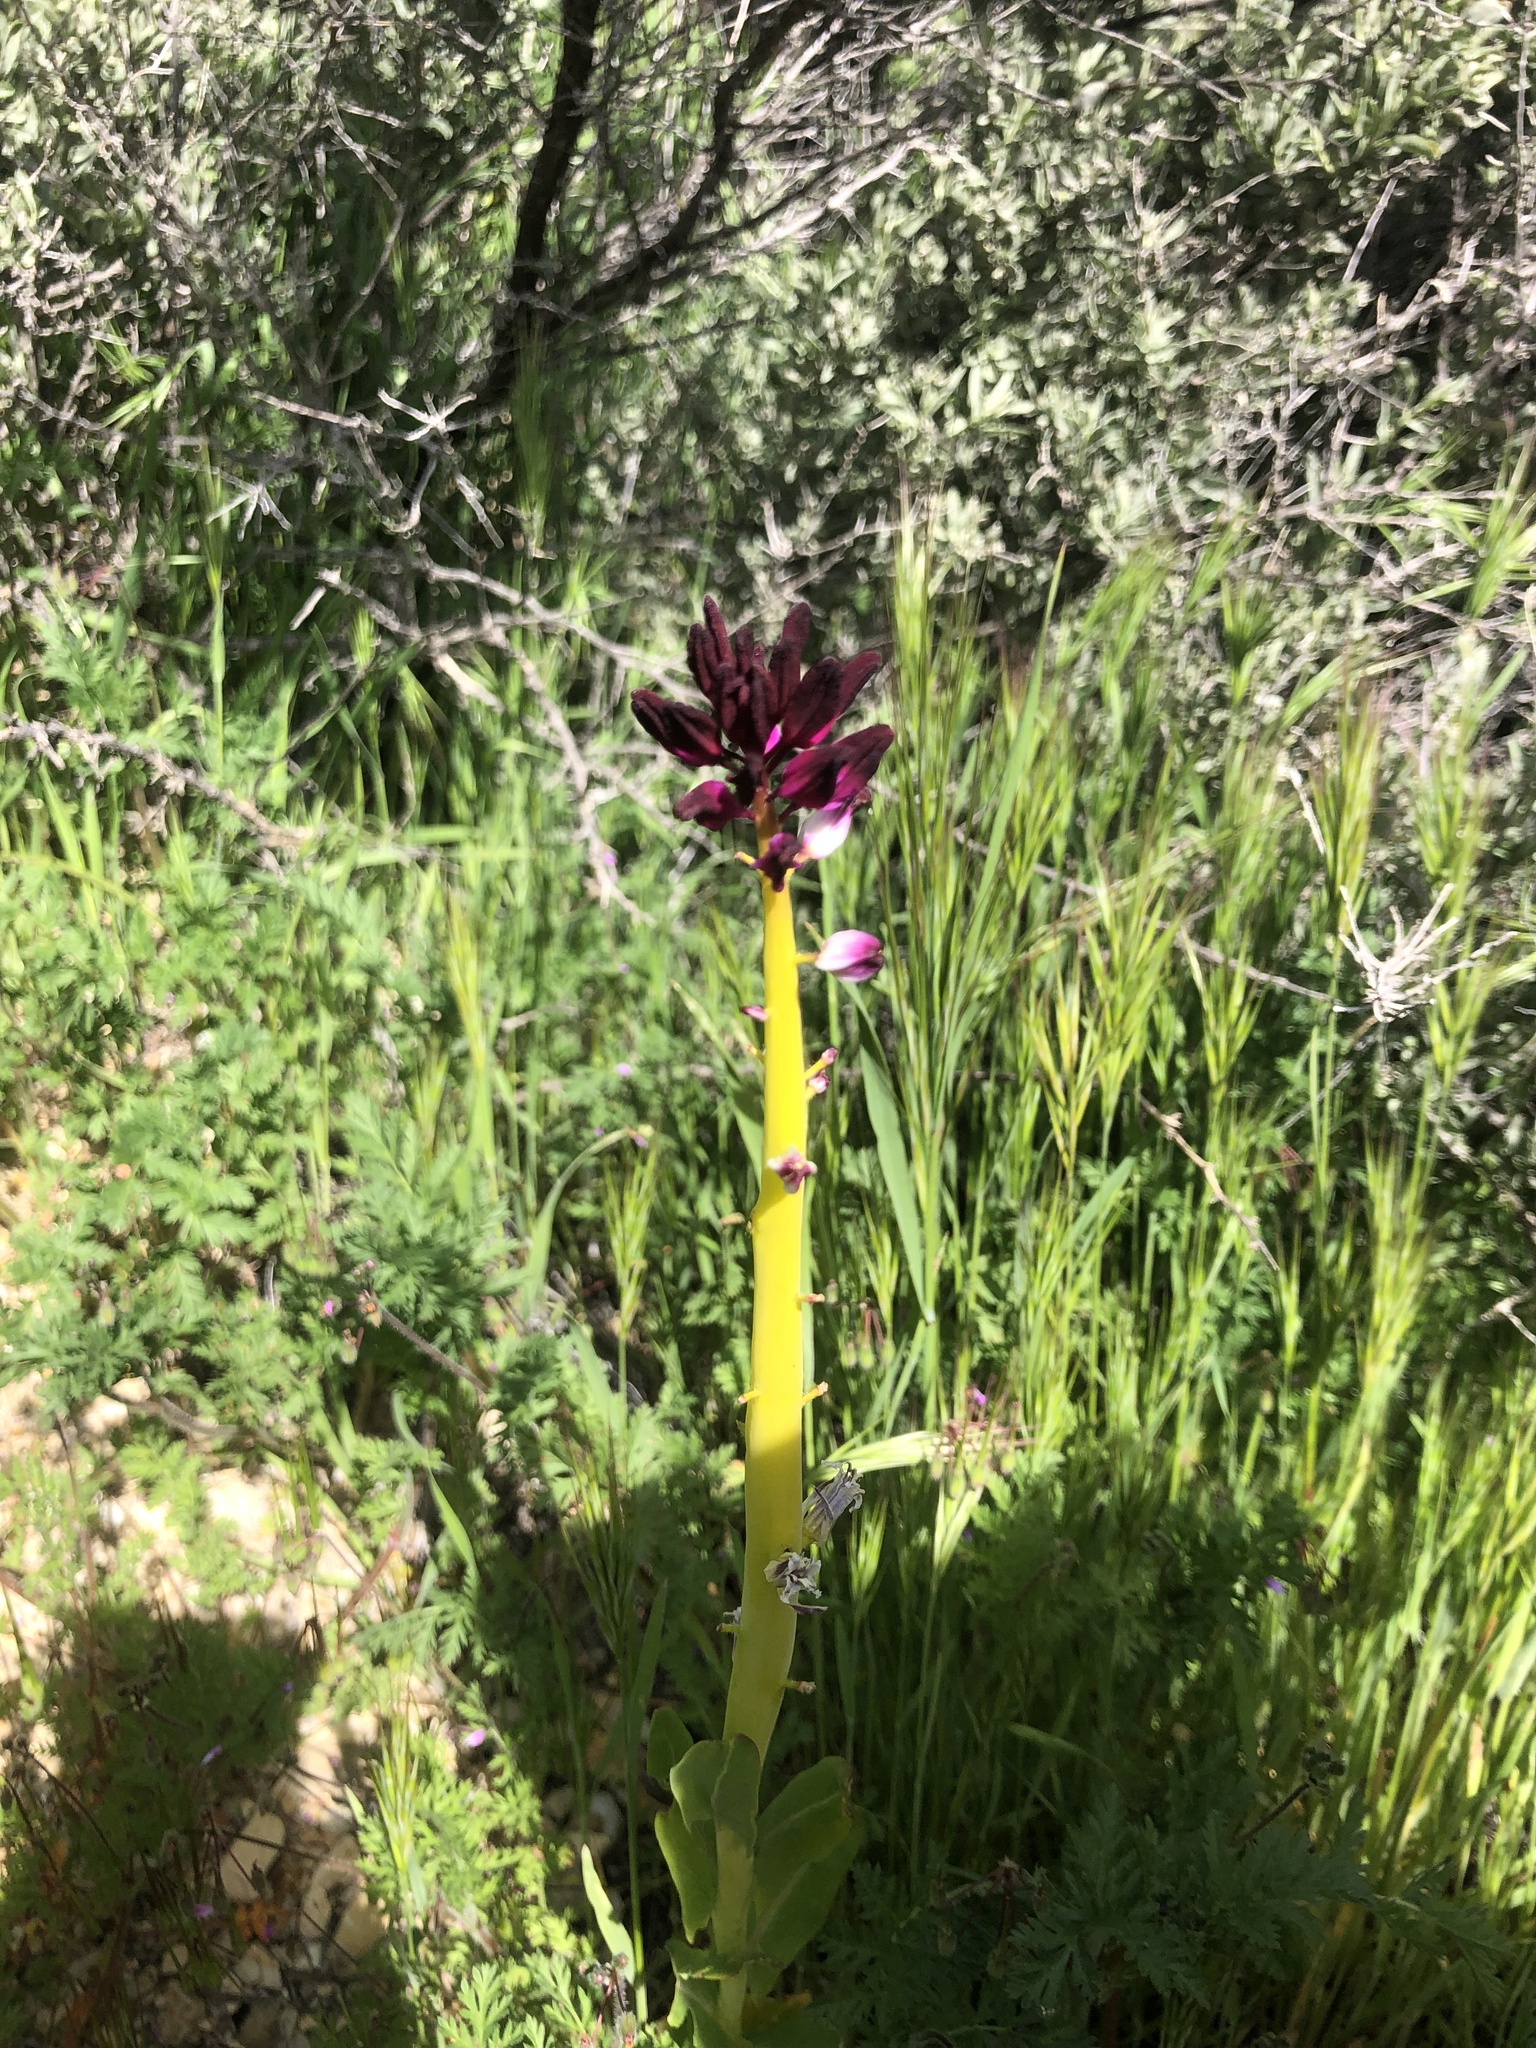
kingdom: Plantae
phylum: Tracheophyta
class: Magnoliopsida
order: Brassicales
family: Brassicaceae
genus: Streptanthus
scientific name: Streptanthus inflatus
